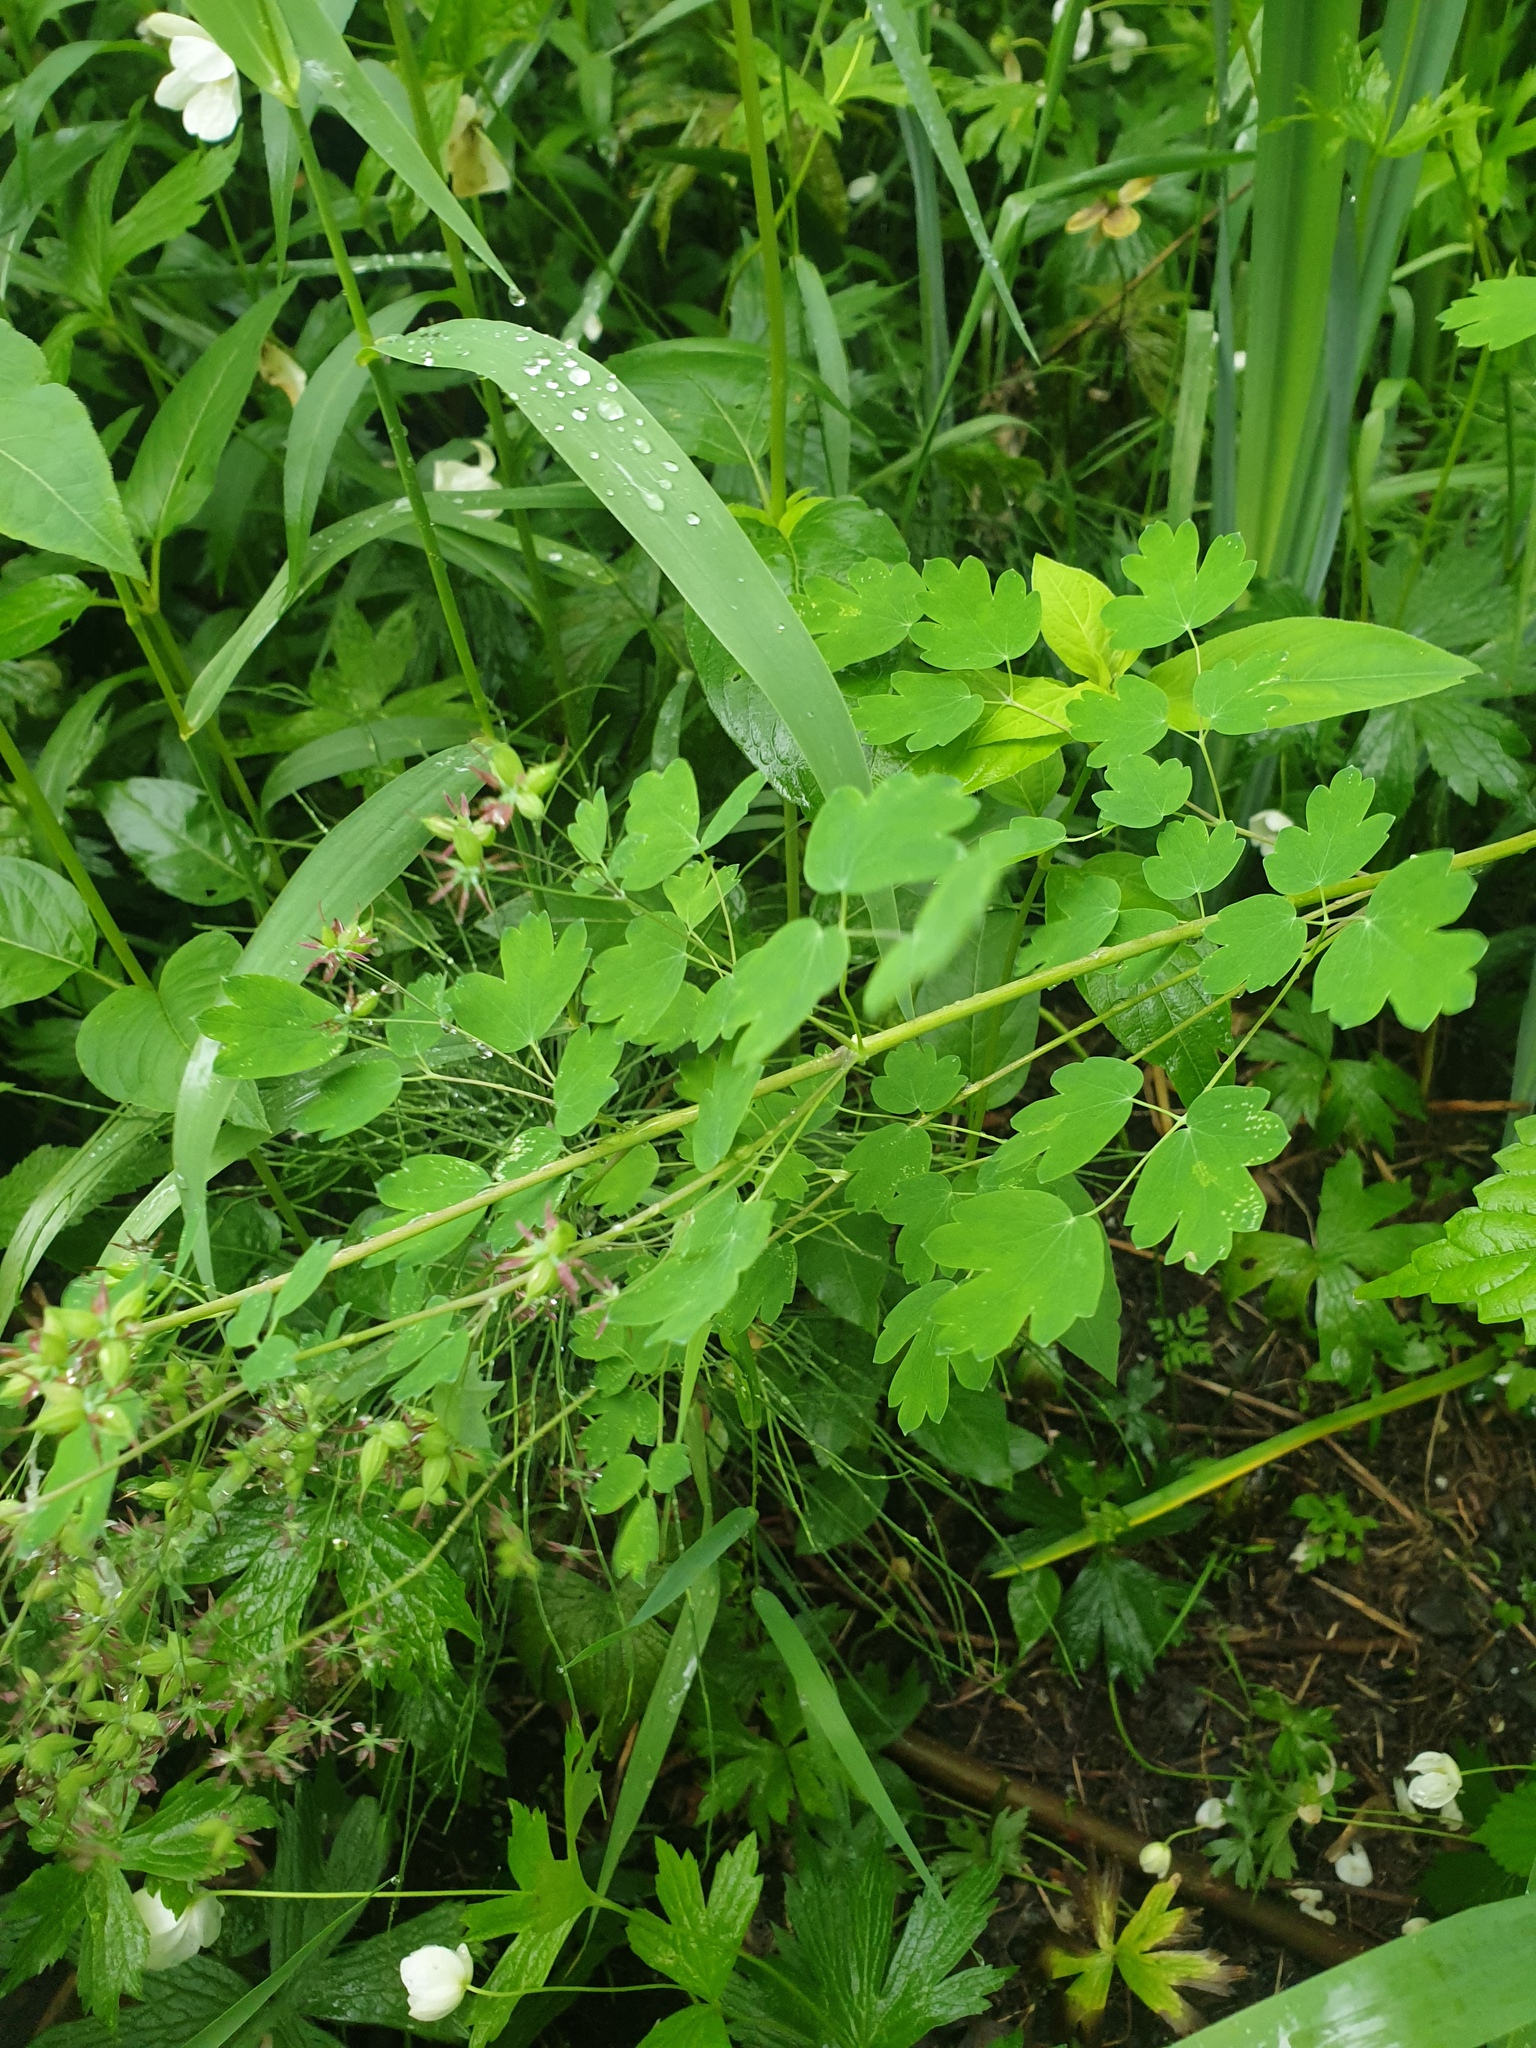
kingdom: Plantae
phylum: Tracheophyta
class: Magnoliopsida
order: Ranunculales
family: Ranunculaceae
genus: Thalictrum
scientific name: Thalictrum venulosum
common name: Early meadow-rue
